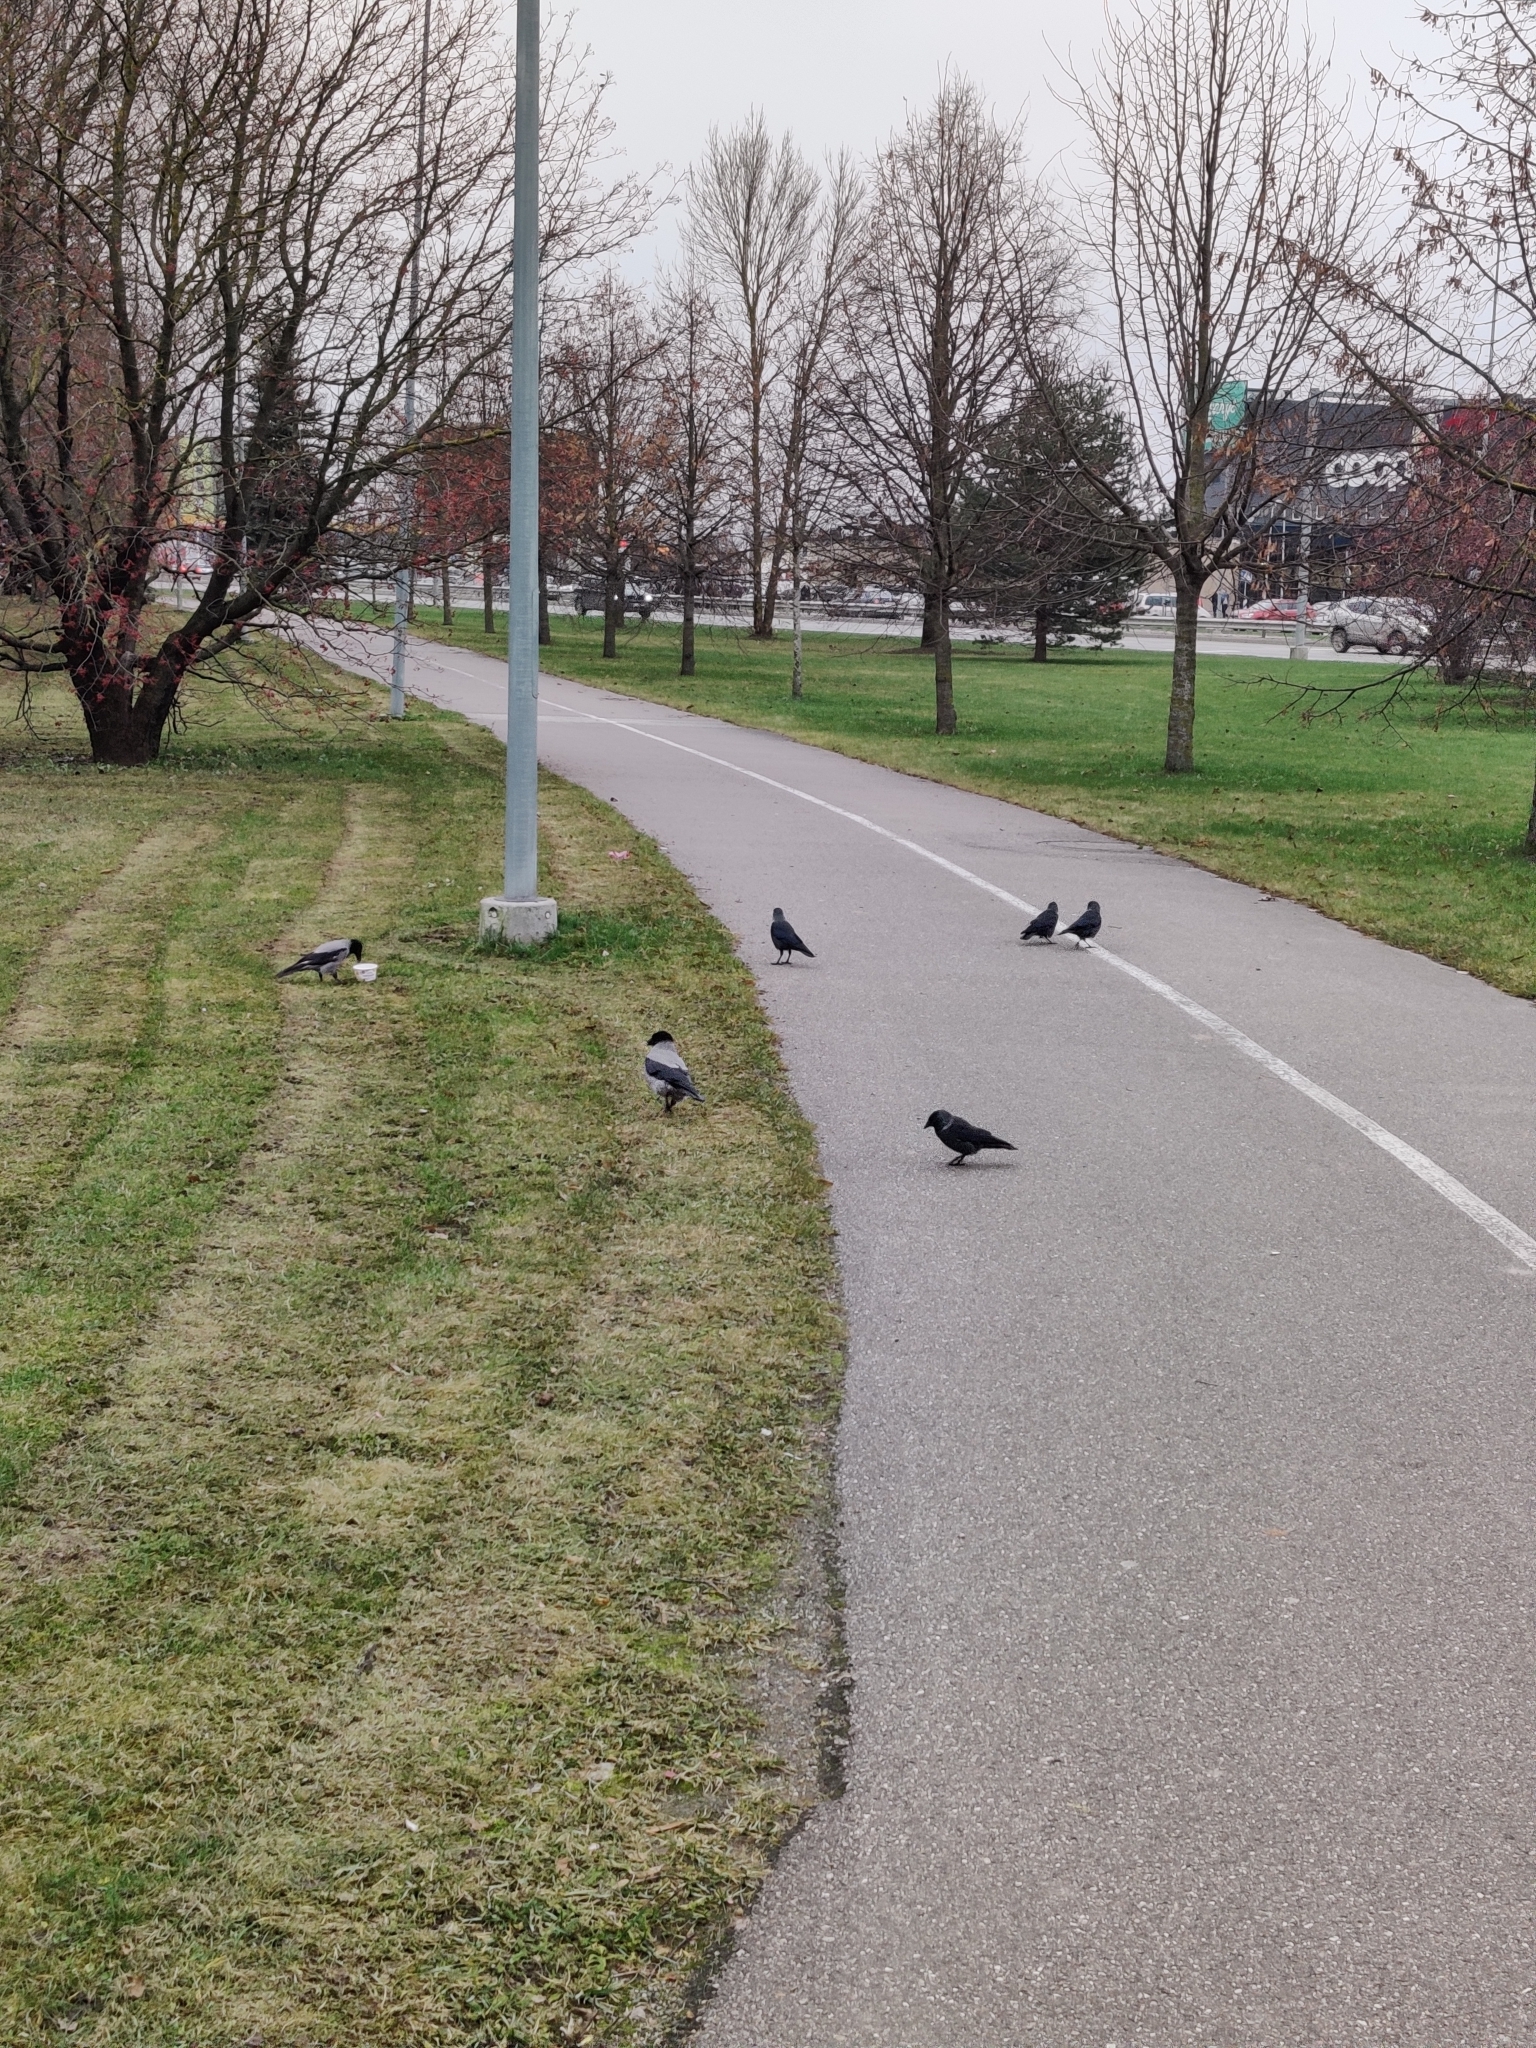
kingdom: Animalia
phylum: Chordata
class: Aves
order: Passeriformes
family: Corvidae
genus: Corvus
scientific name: Corvus cornix
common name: Hooded crow
